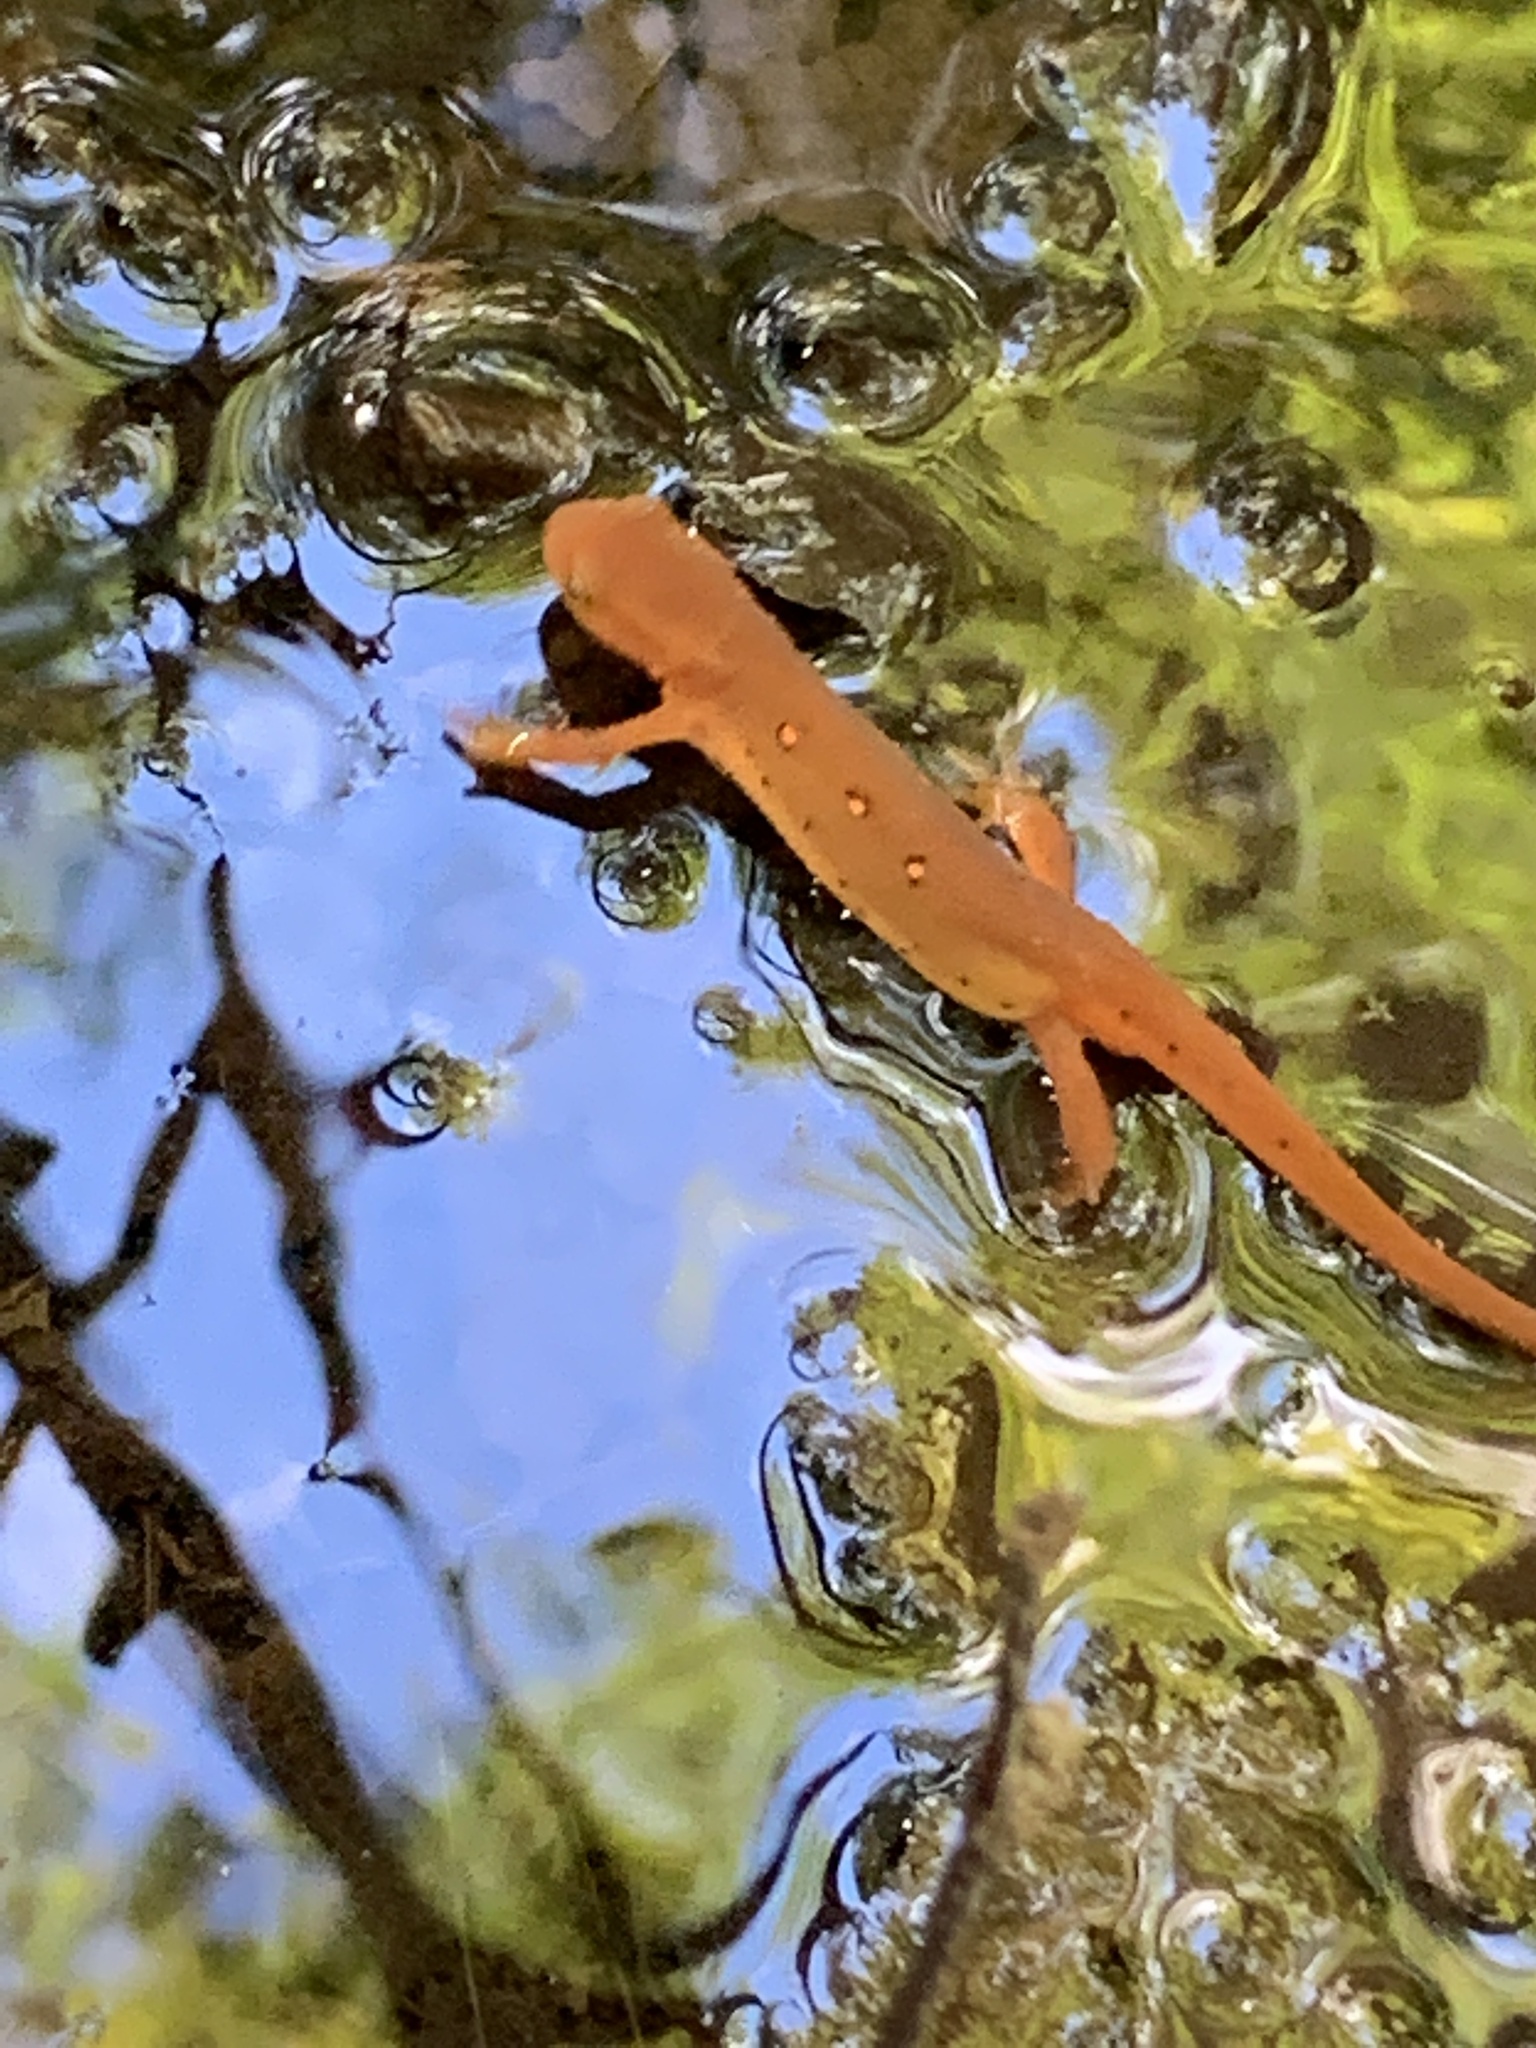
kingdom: Animalia
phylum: Chordata
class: Amphibia
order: Caudata
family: Salamandridae
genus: Notophthalmus
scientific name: Notophthalmus viridescens
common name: Eastern newt
